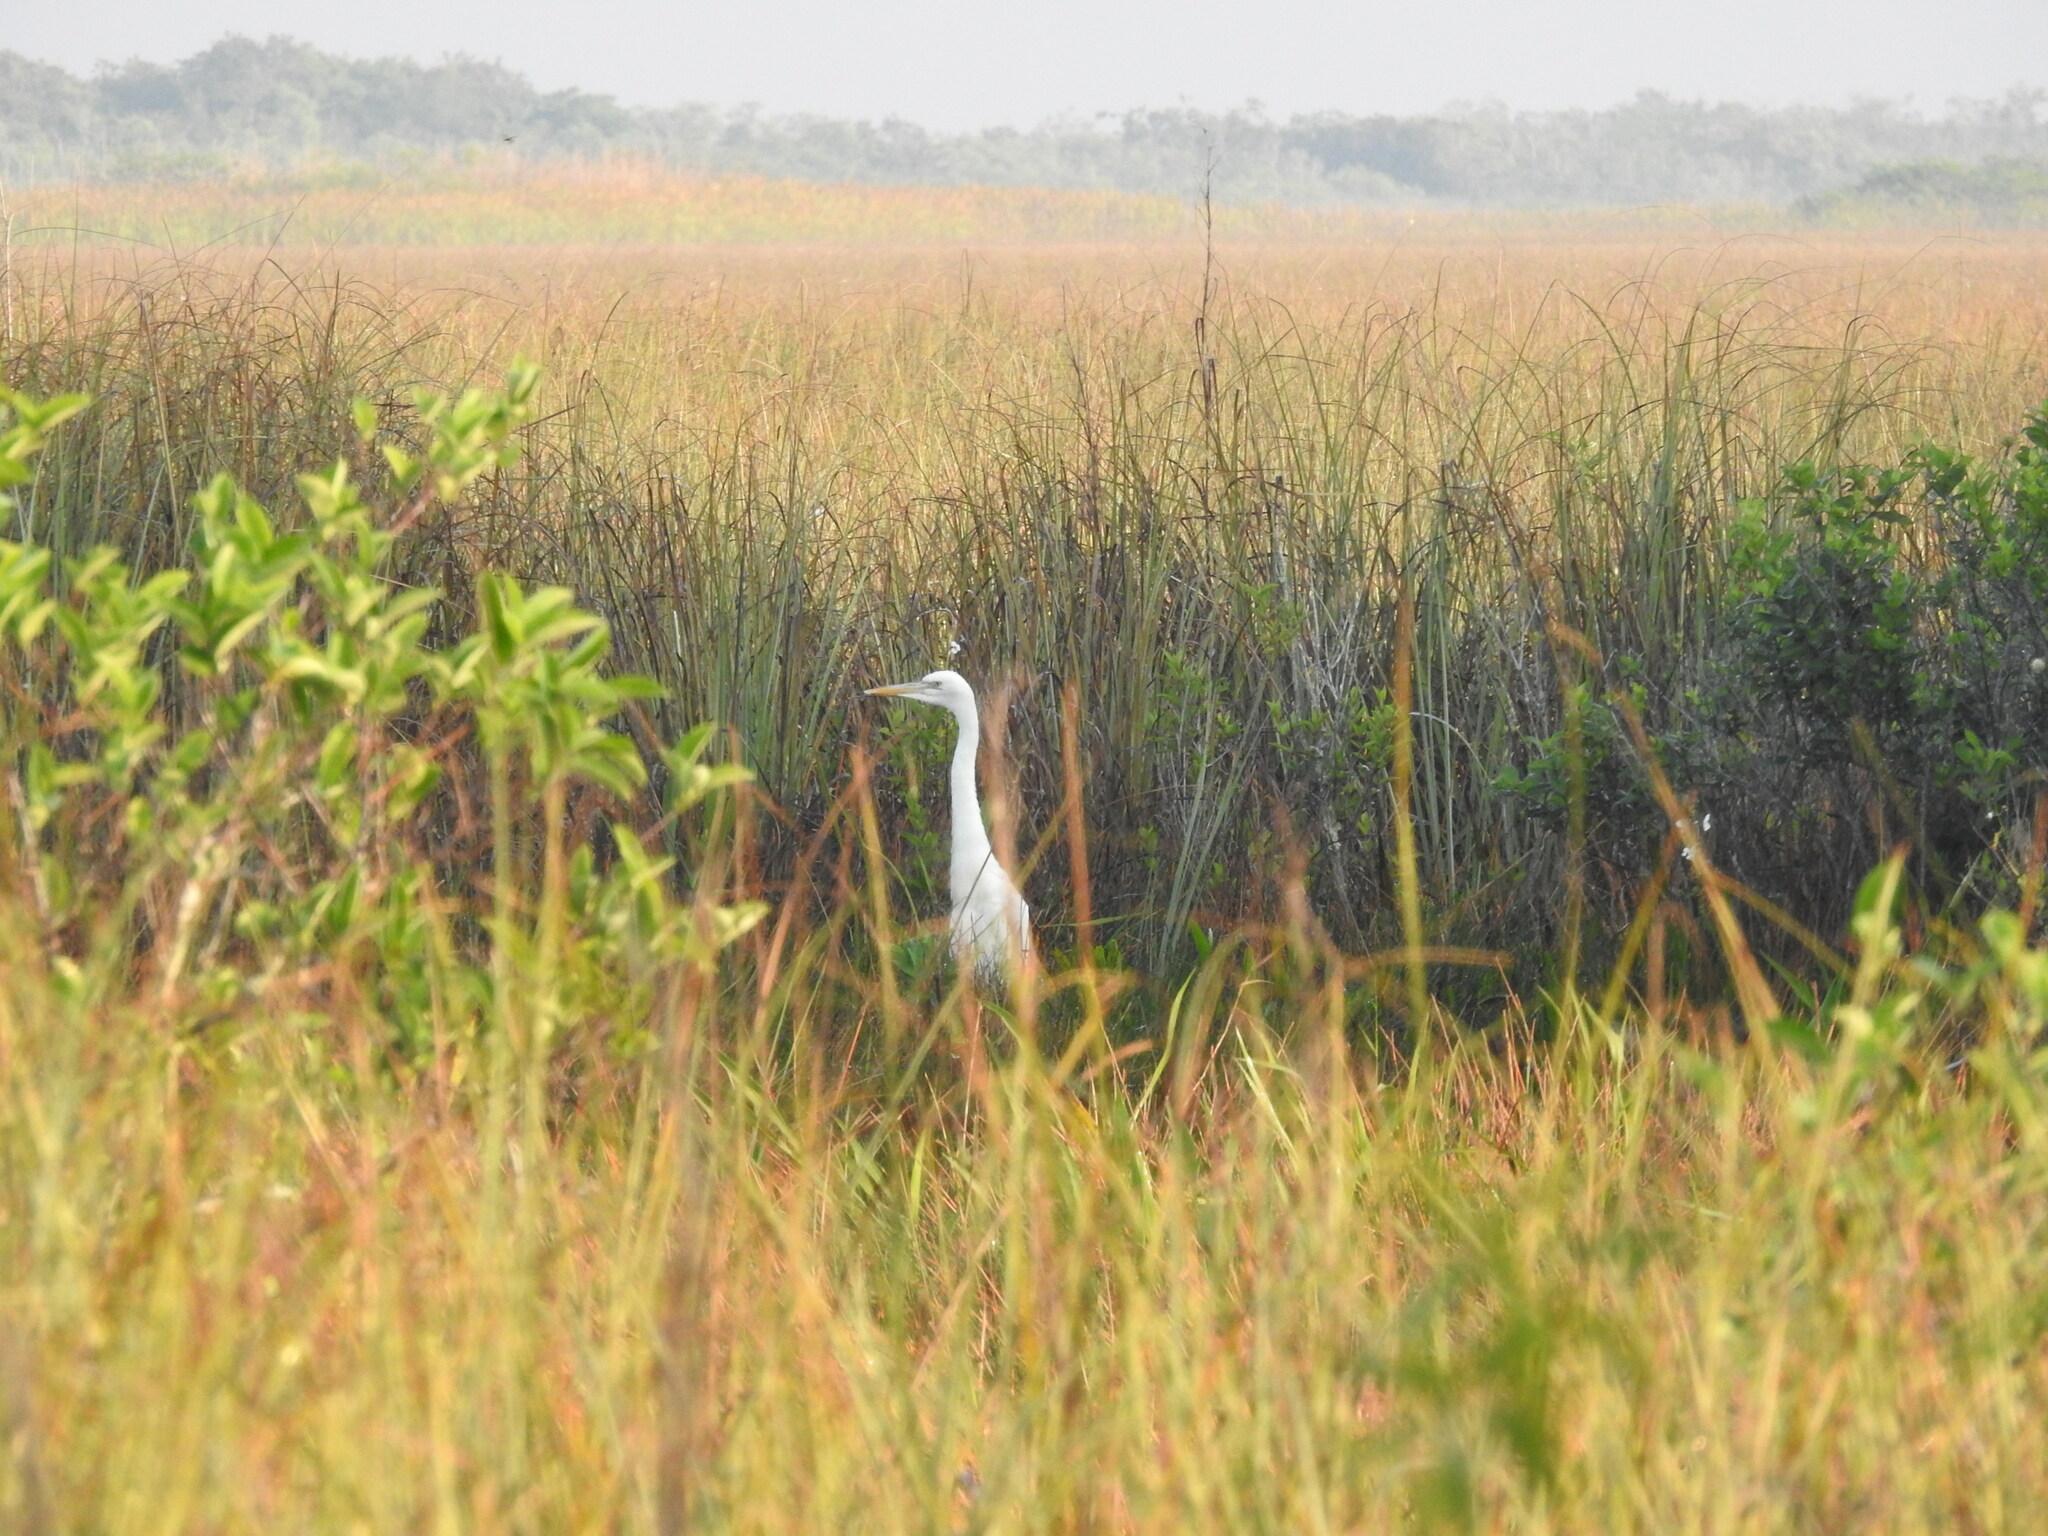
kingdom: Animalia
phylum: Chordata
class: Aves
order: Pelecaniformes
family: Ardeidae
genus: Ardea
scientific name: Ardea herodias
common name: Great blue heron
